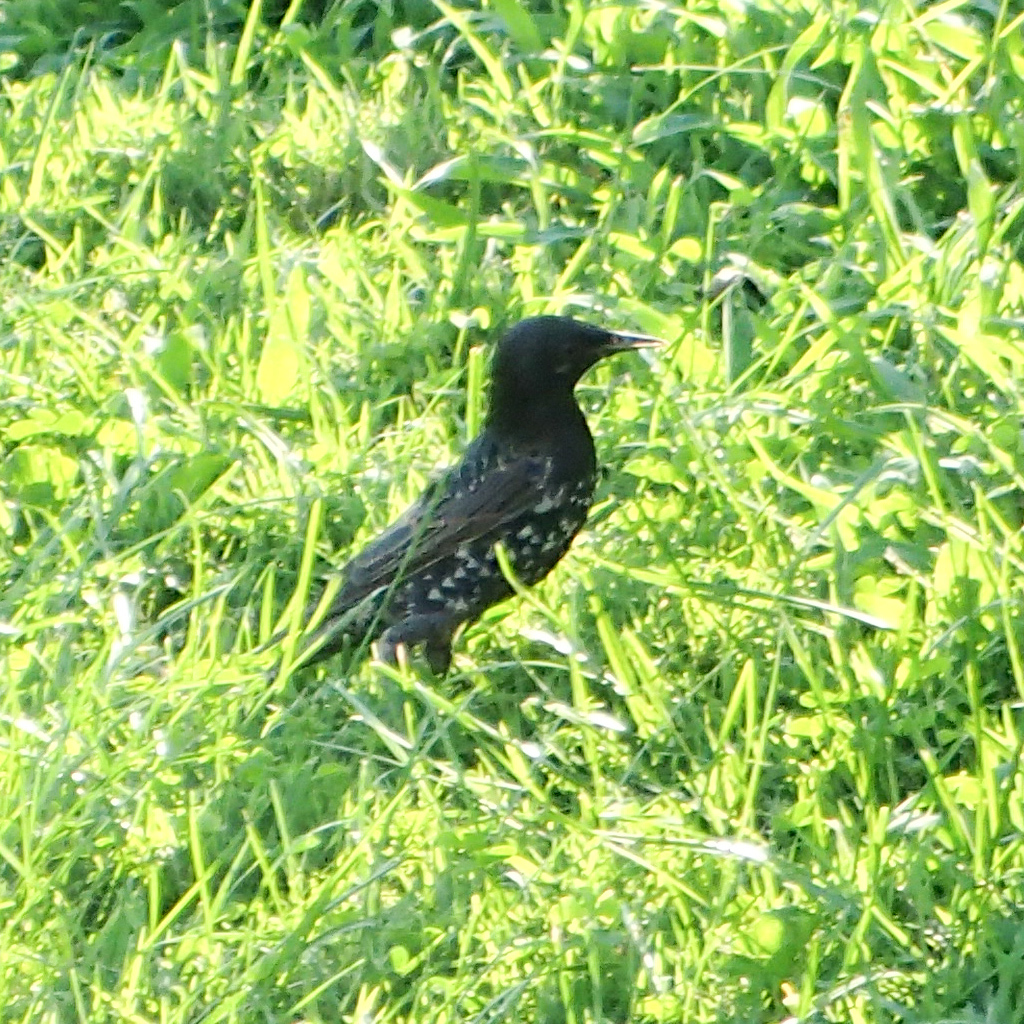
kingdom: Animalia
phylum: Chordata
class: Aves
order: Passeriformes
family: Sturnidae
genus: Sturnus
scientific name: Sturnus vulgaris
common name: Common starling
